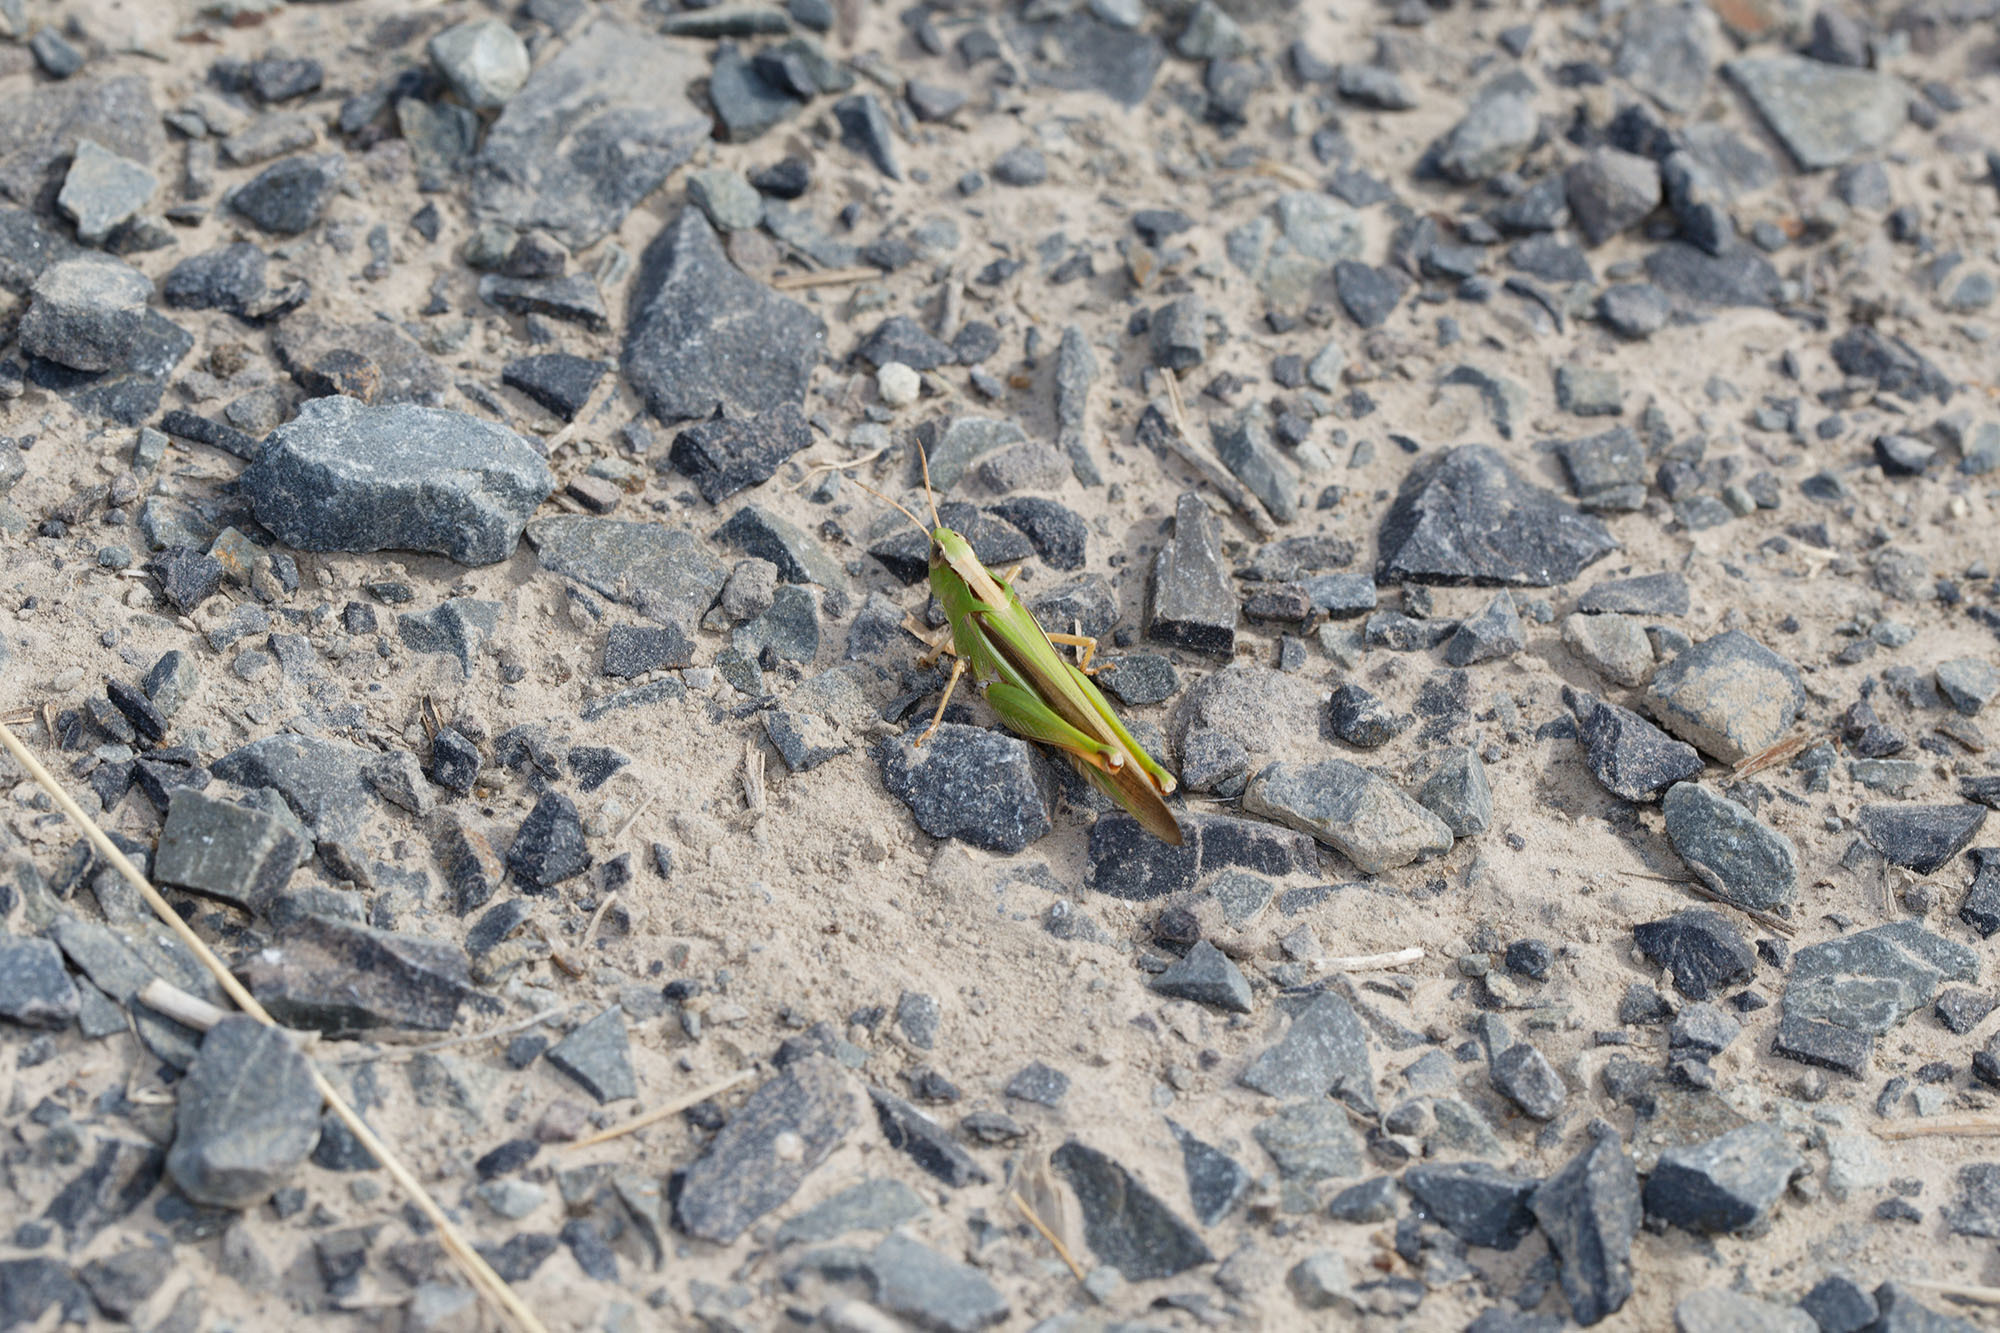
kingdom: Animalia
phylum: Arthropoda
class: Insecta
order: Orthoptera
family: Acrididae
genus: Schizobothrus
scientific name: Schizobothrus flavovittatus
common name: Disappearing grasshopper
